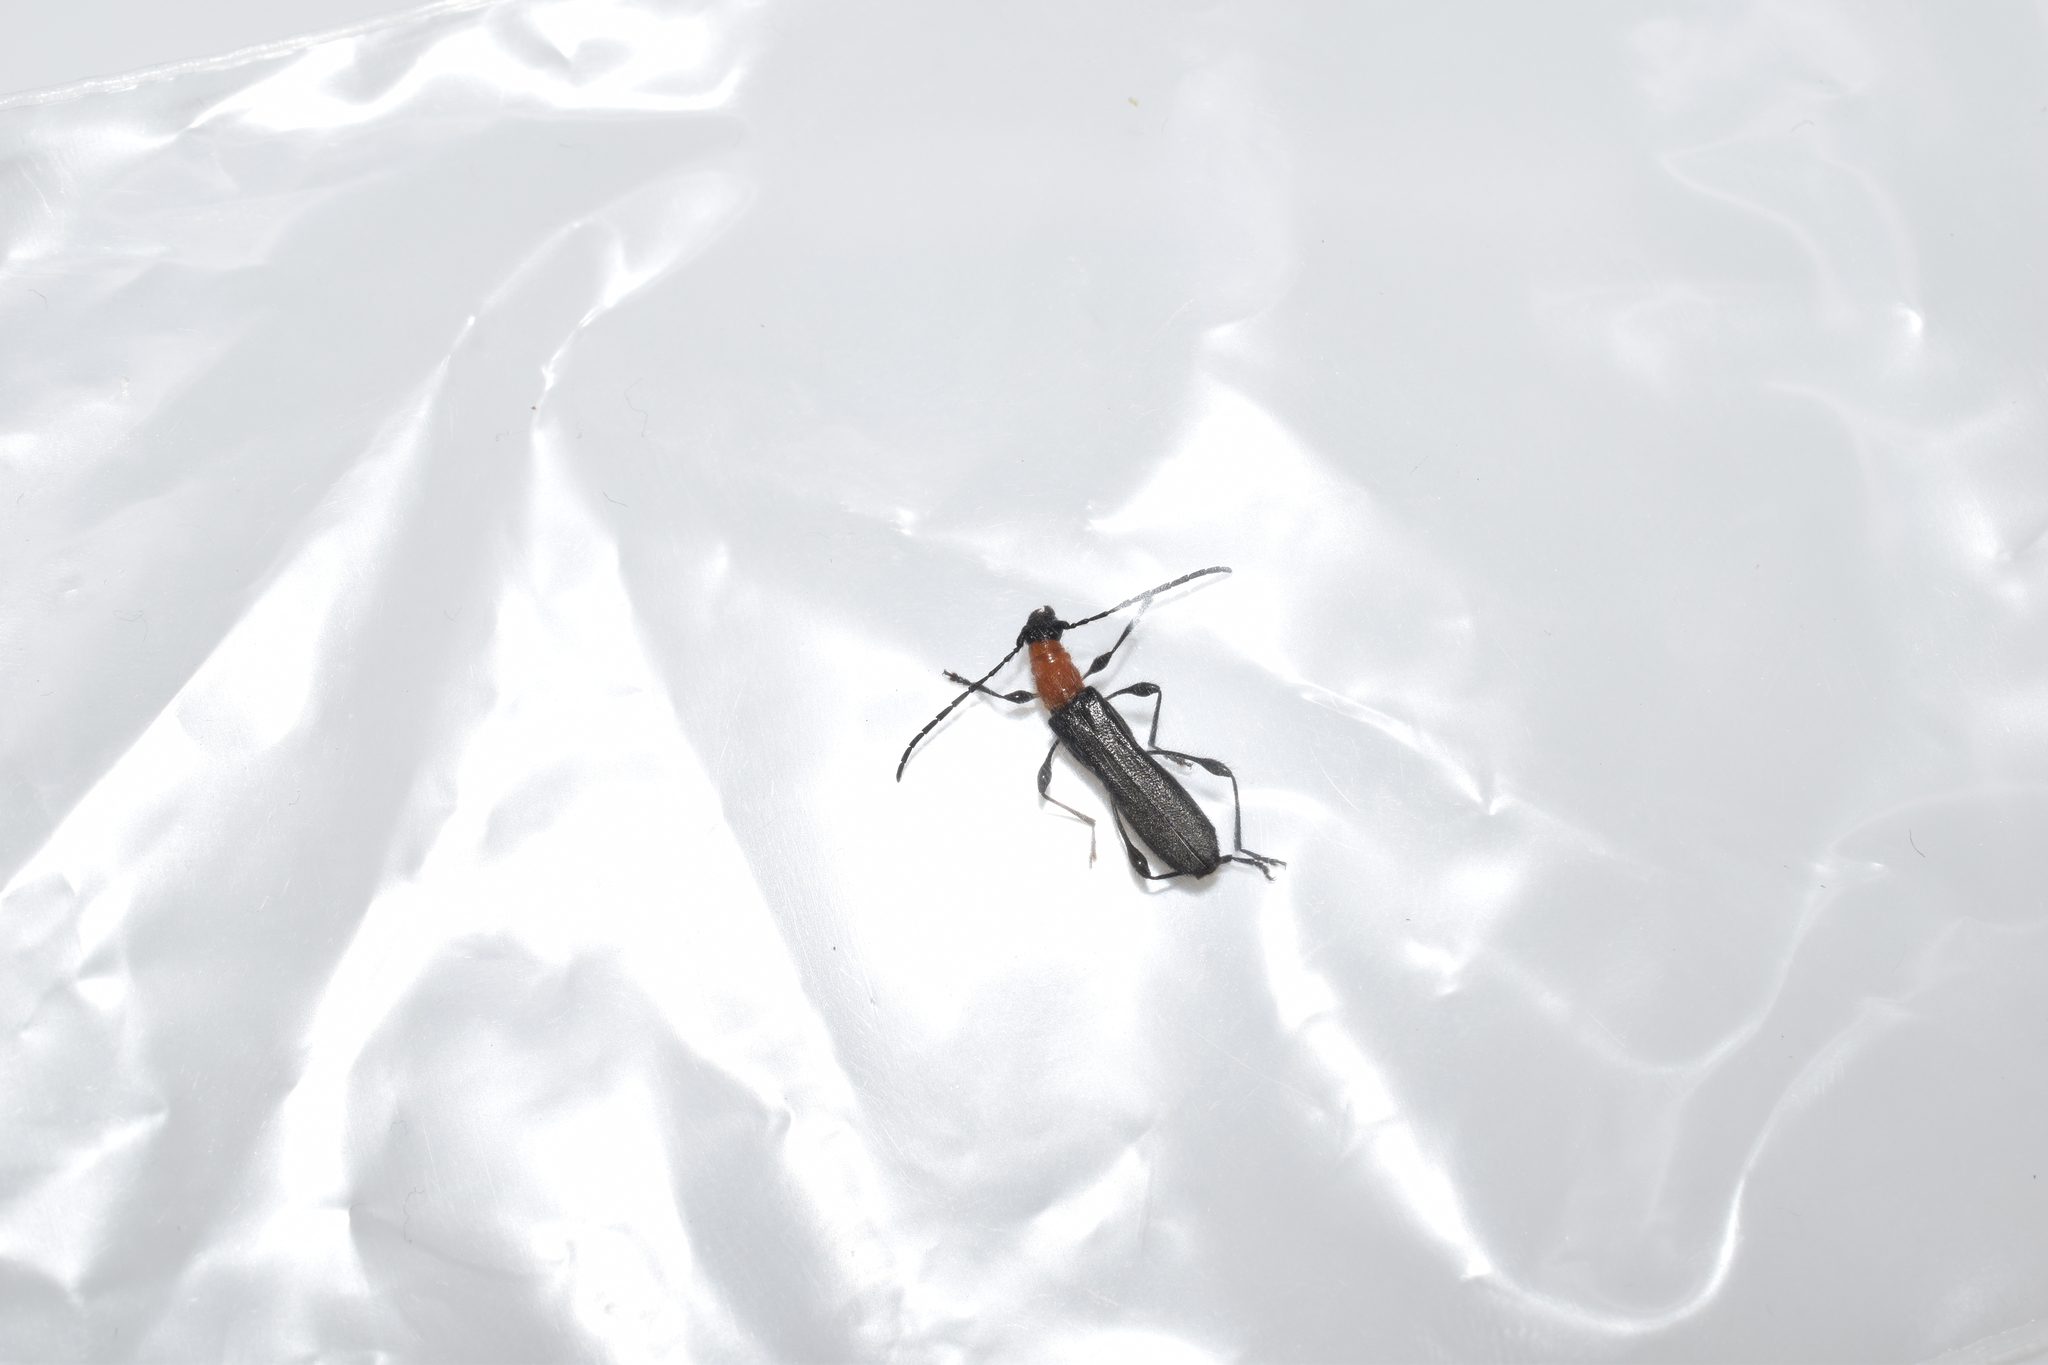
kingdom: Animalia
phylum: Arthropoda
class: Insecta
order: Coleoptera
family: Cerambycidae
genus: Kurarua
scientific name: Kurarua rhopalophoroides
